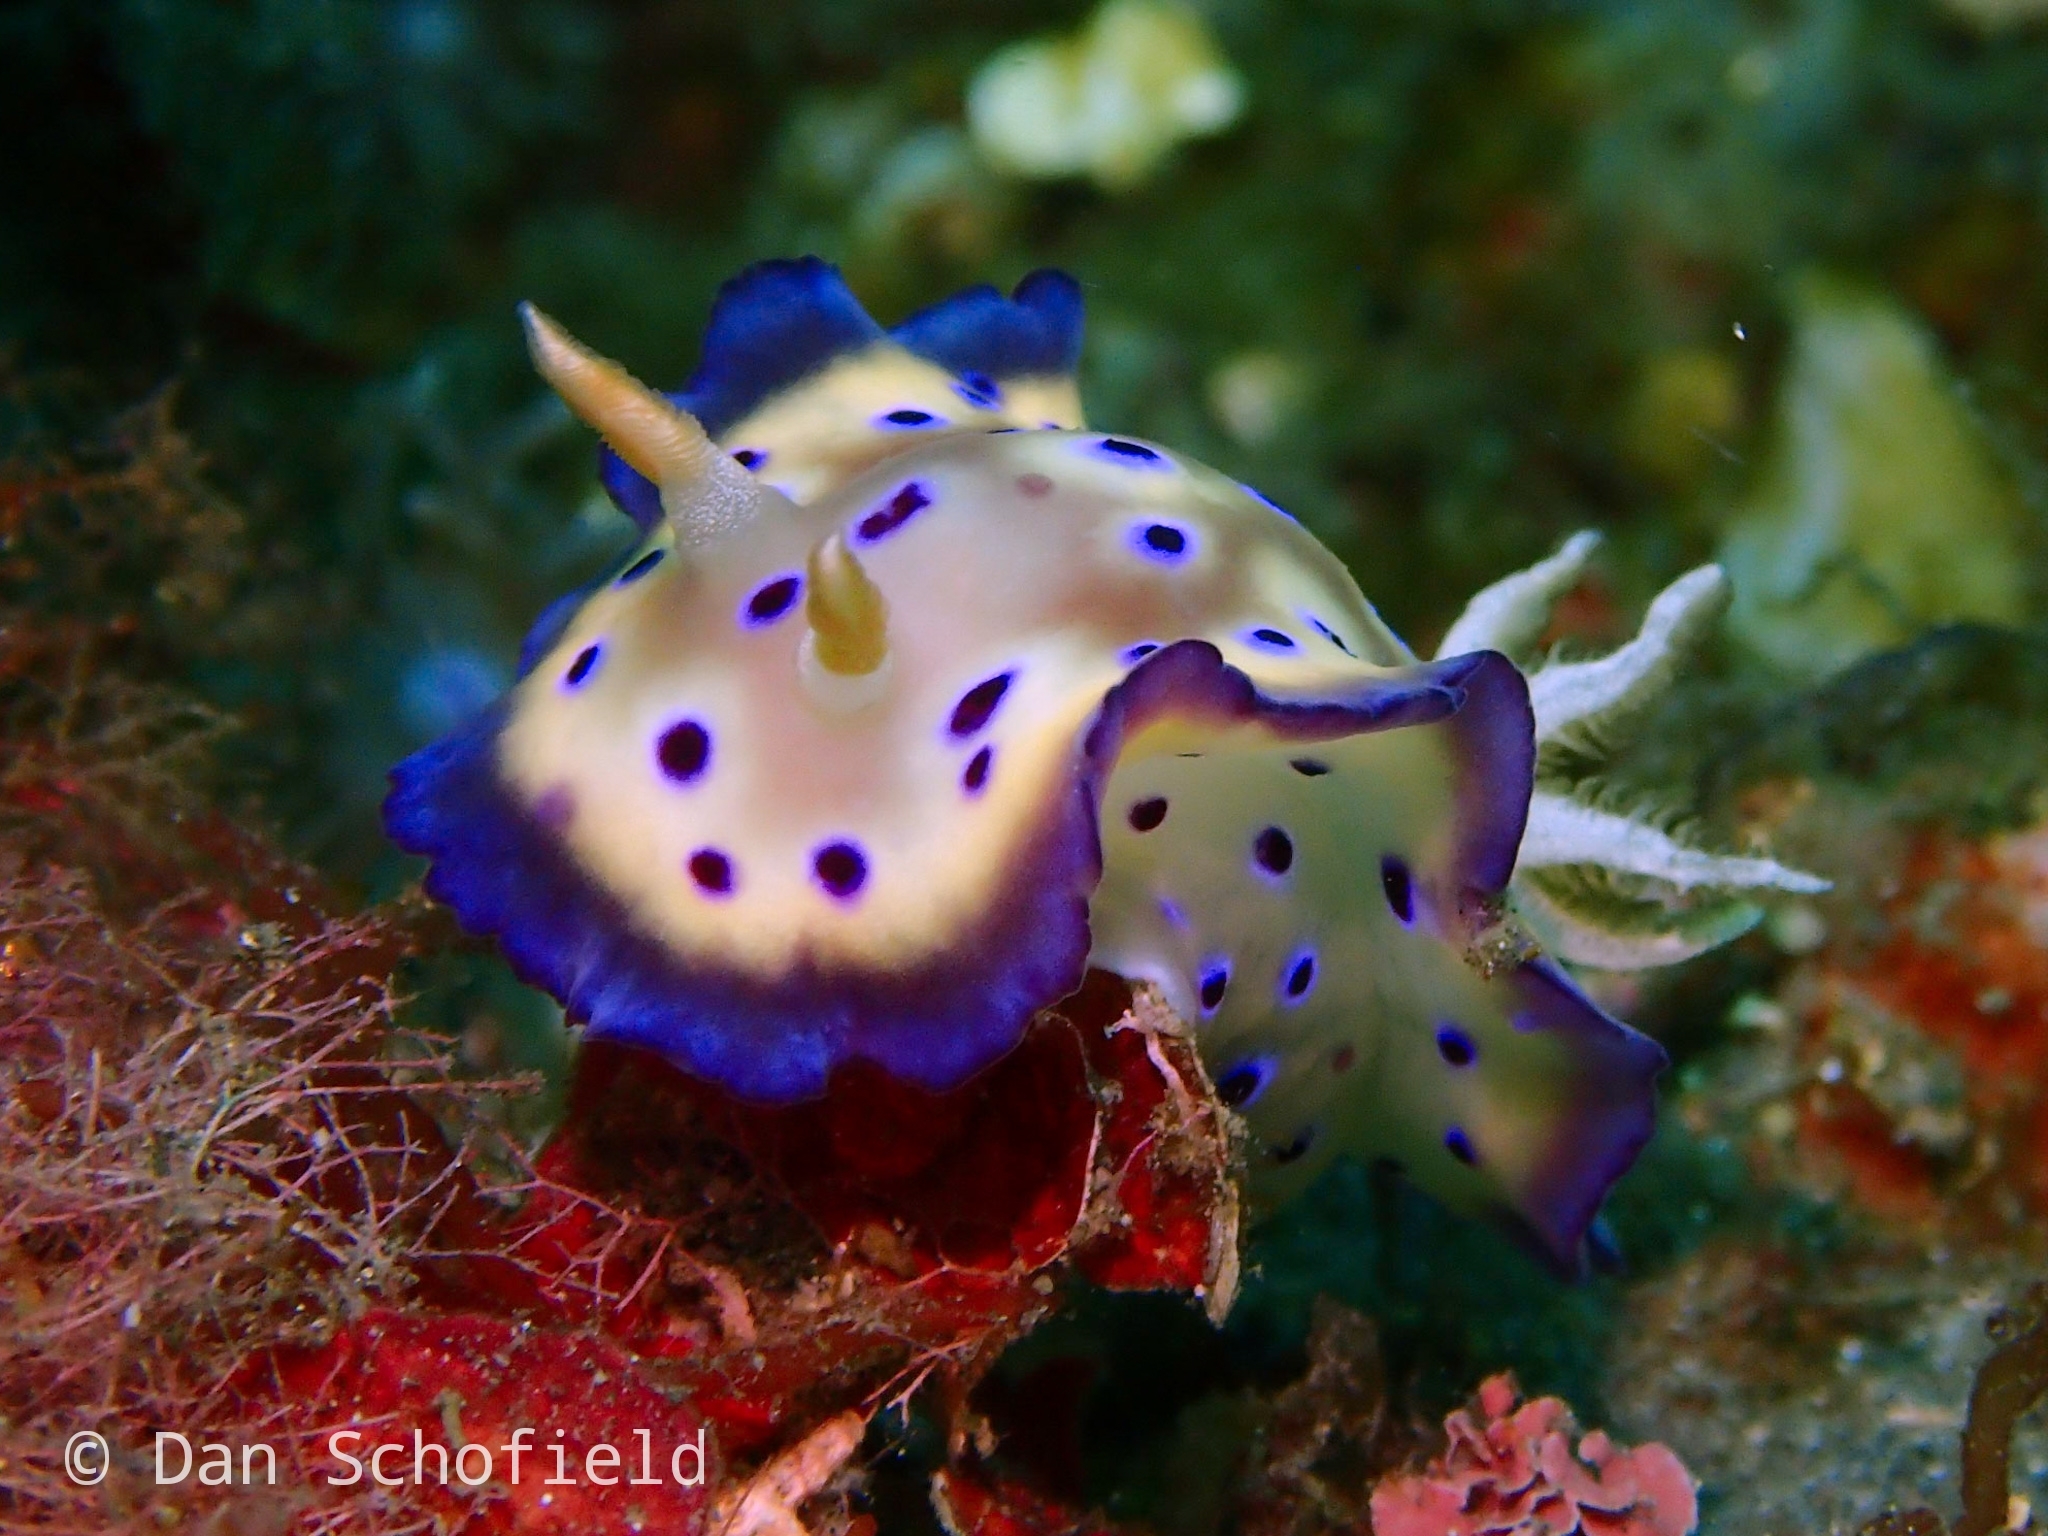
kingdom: Animalia
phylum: Mollusca
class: Gastropoda
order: Nudibranchia
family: Chromodorididae
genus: Goniobranchus
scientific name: Goniobranchus kuniei
